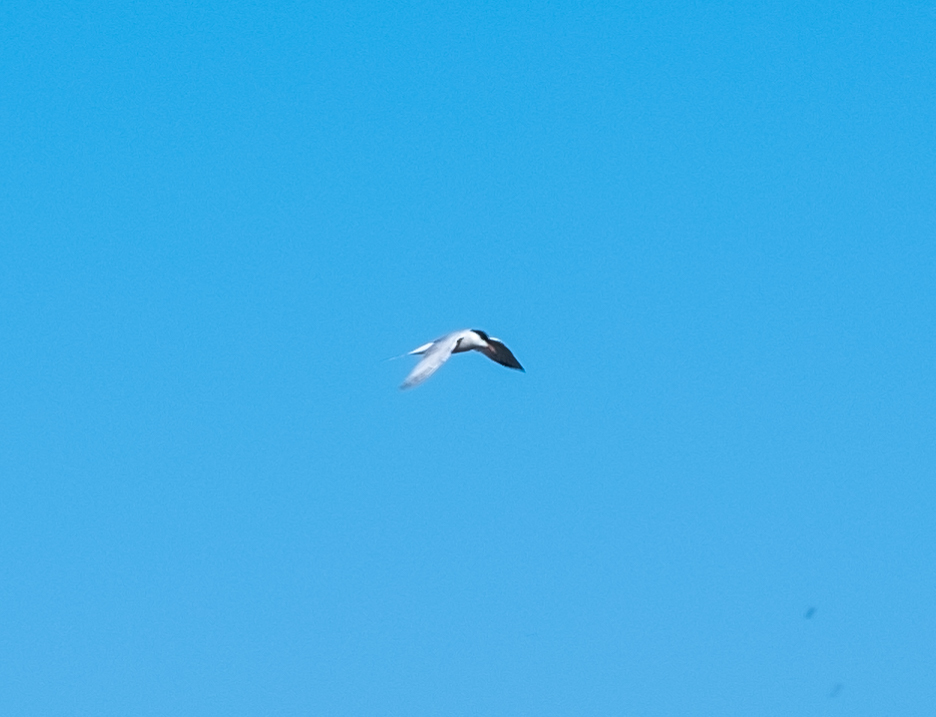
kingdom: Animalia
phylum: Chordata
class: Aves
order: Charadriiformes
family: Laridae
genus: Sterna
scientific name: Sterna hirundo
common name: Common tern
